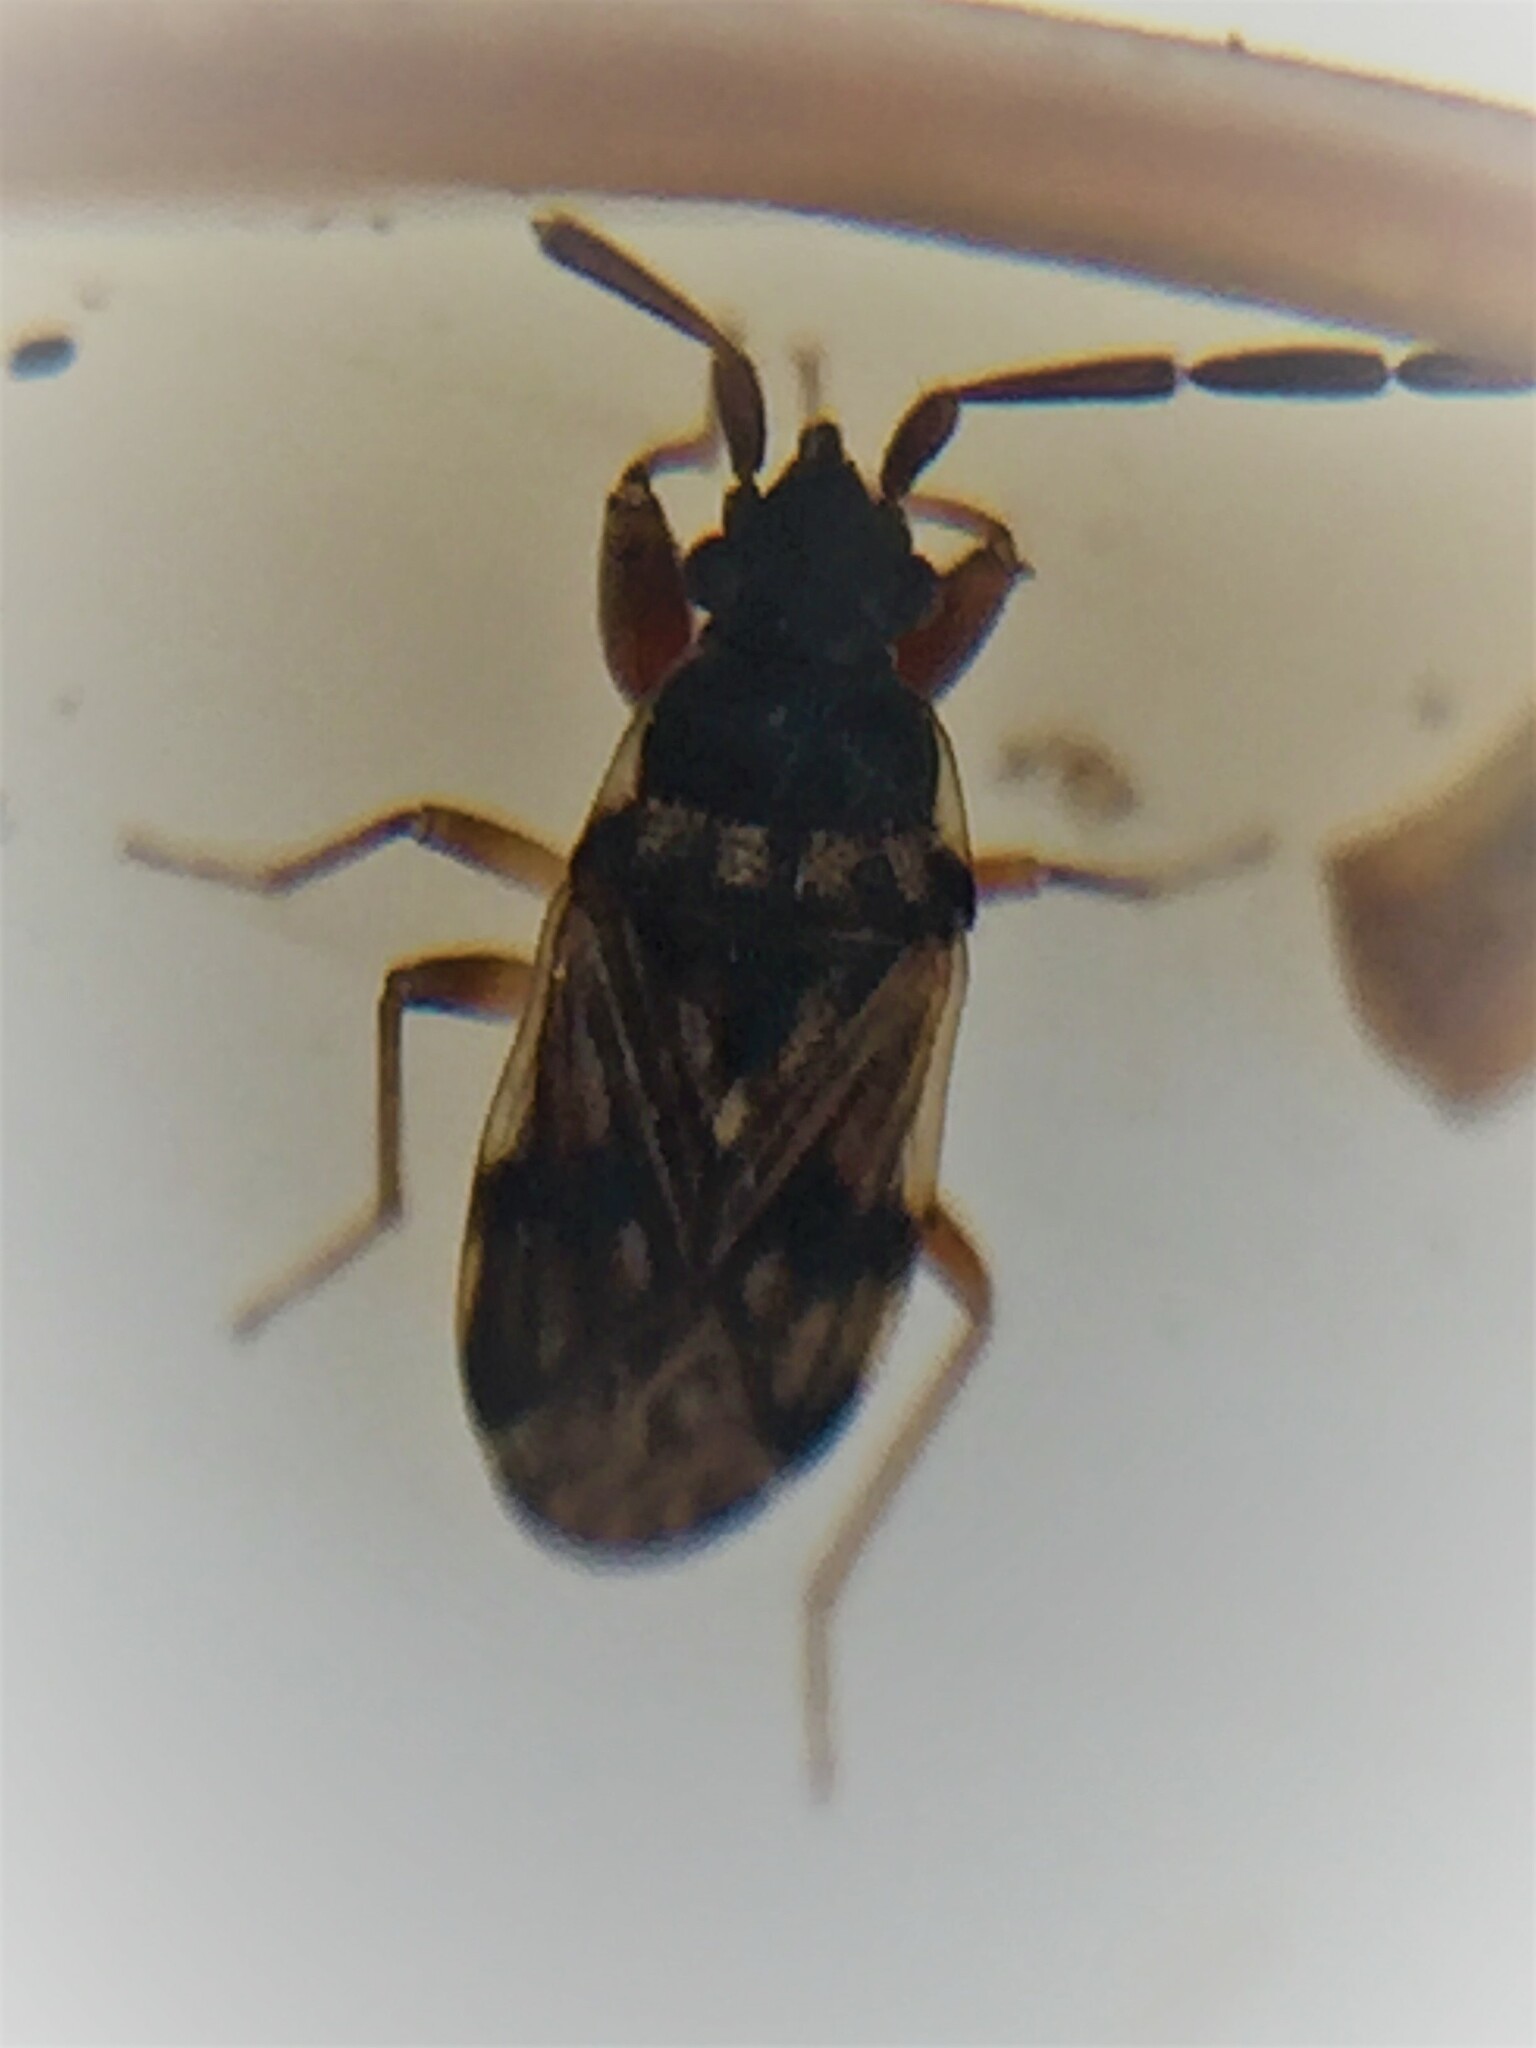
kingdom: Animalia
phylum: Arthropoda
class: Insecta
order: Hemiptera
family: Rhyparochromidae
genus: Brentiscerus
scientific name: Brentiscerus putoni
